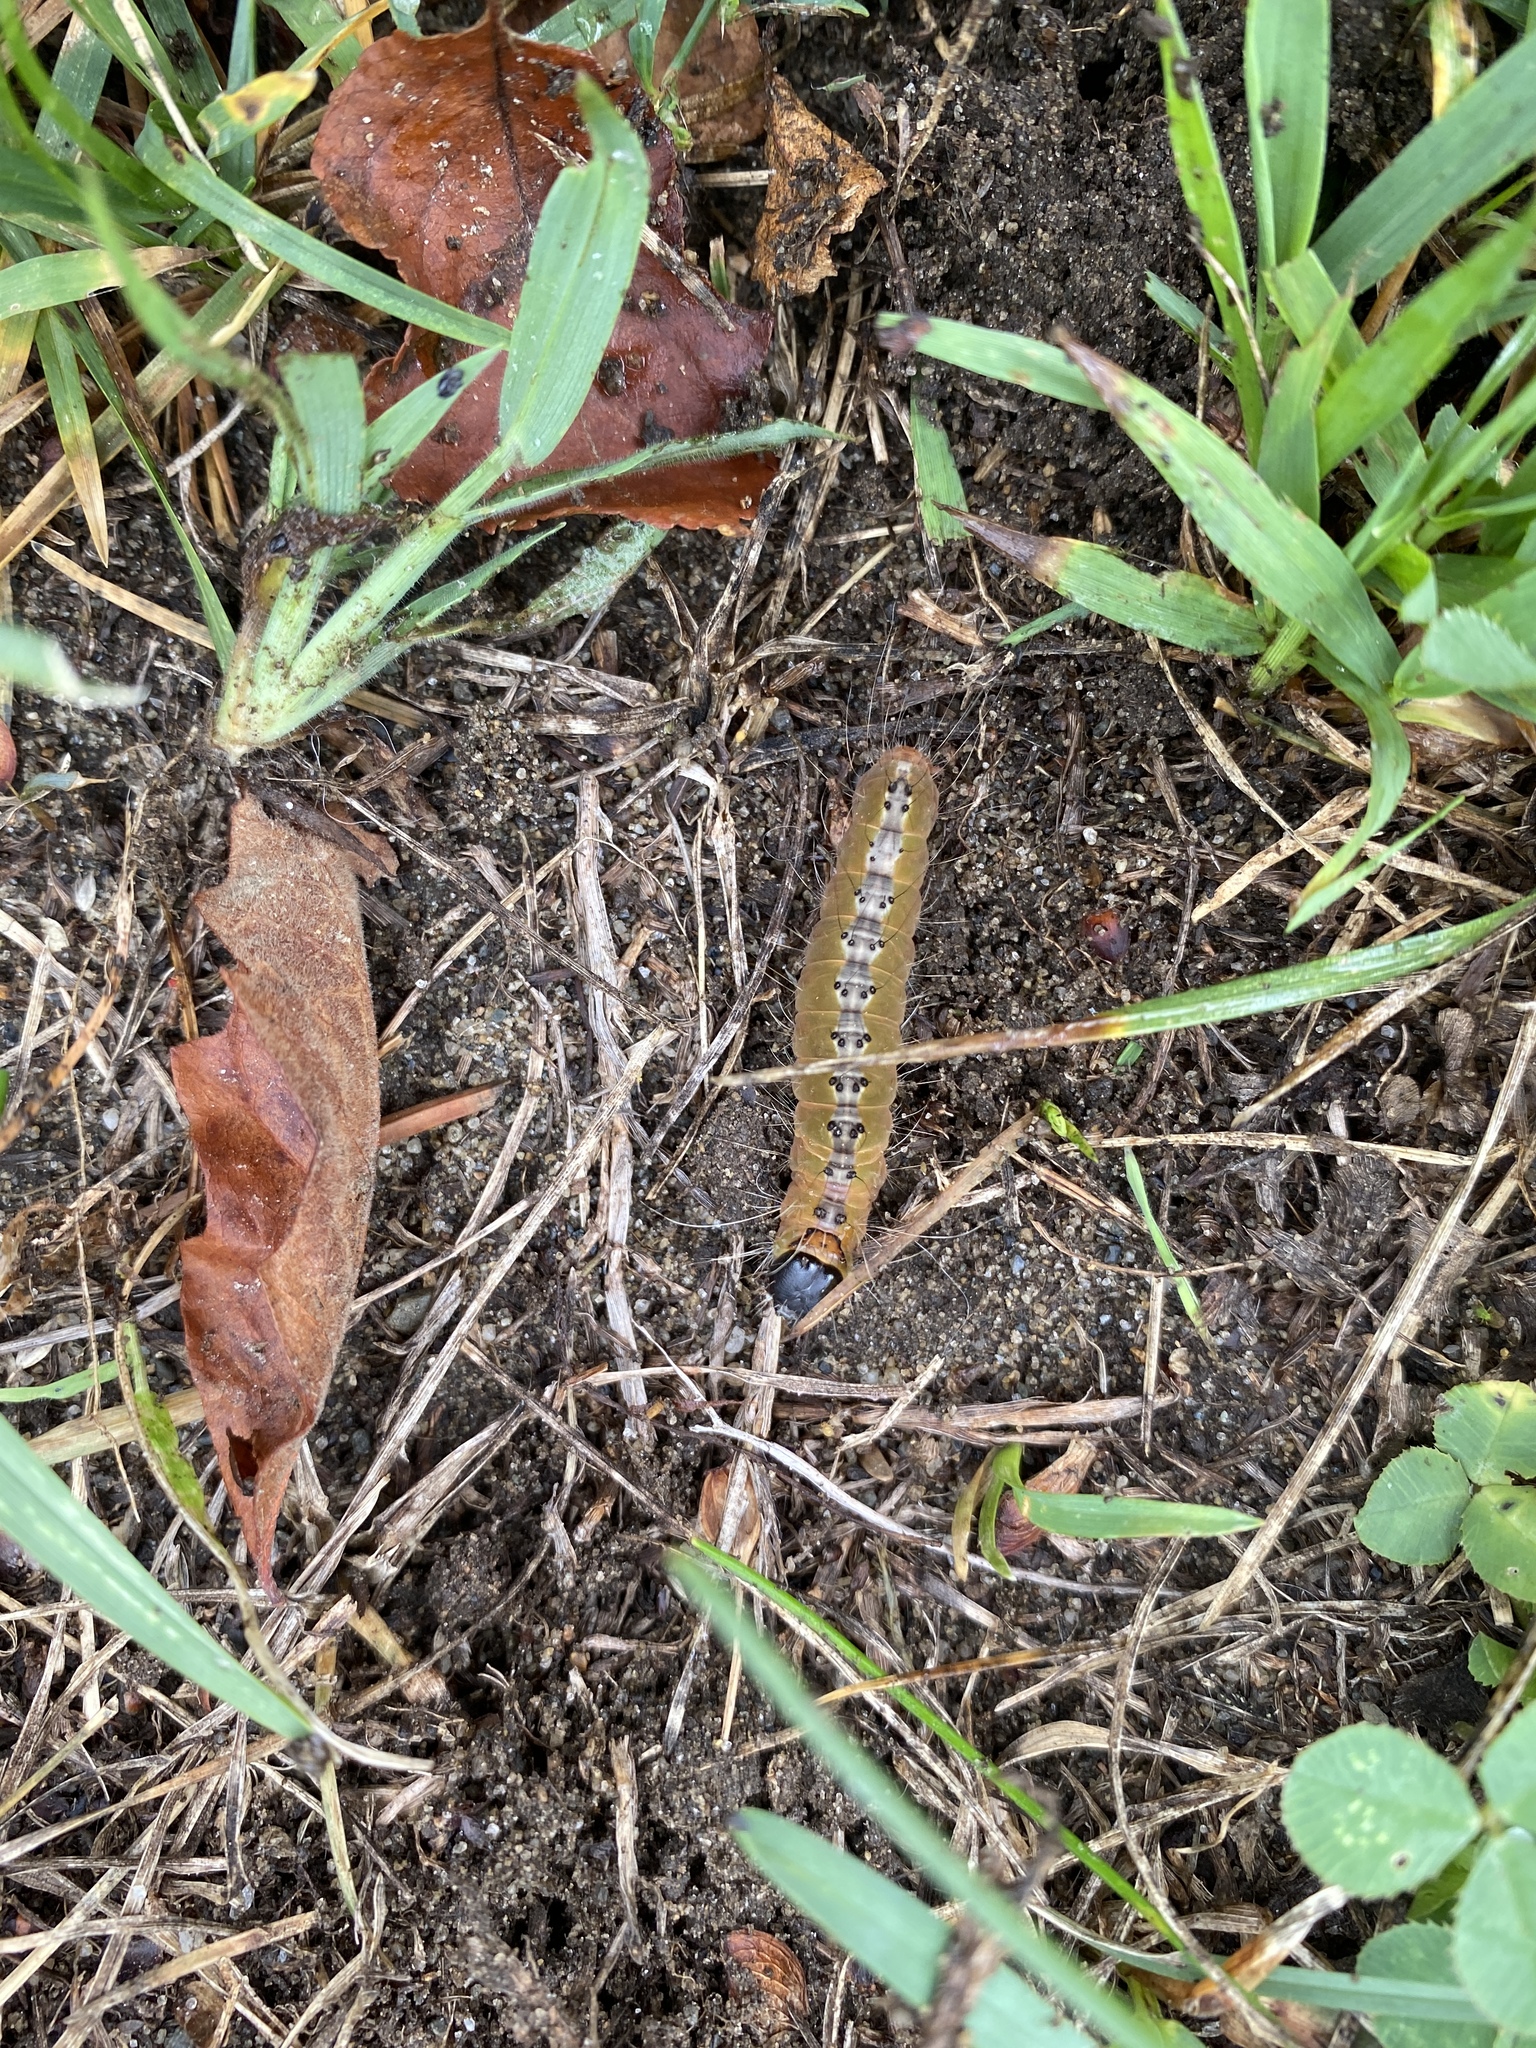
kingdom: Animalia
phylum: Arthropoda
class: Insecta
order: Lepidoptera
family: Noctuidae
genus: Acronicta
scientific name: Acronicta superans
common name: Splendid dagger
